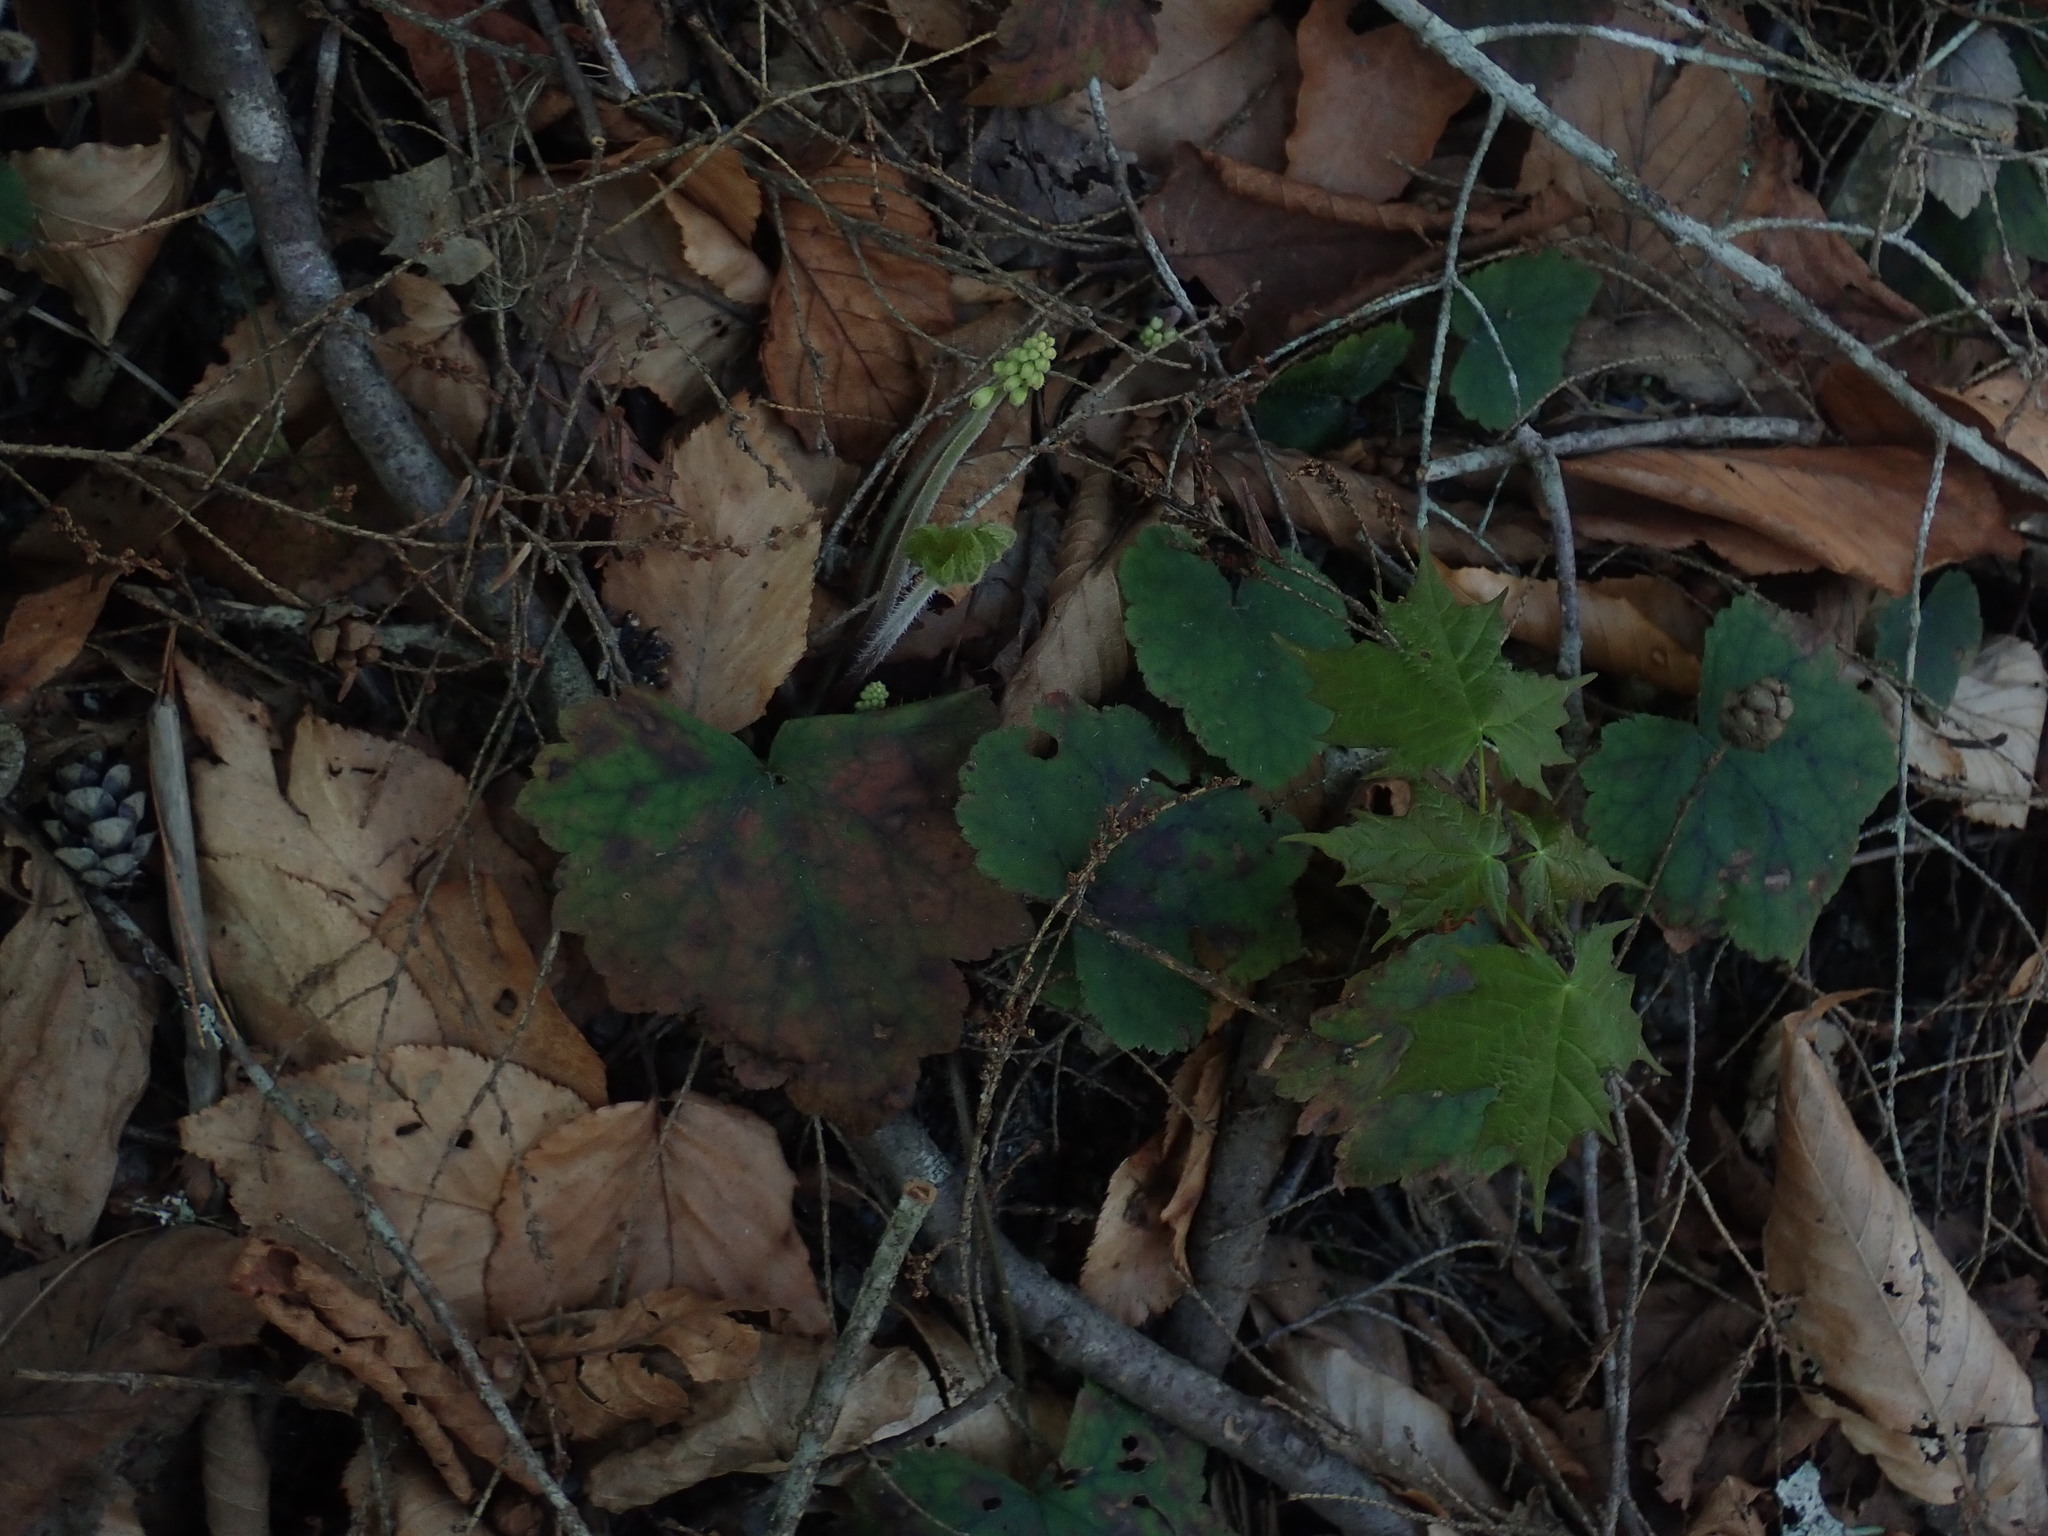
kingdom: Plantae
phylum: Tracheophyta
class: Magnoliopsida
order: Saxifragales
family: Saxifragaceae
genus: Tiarella
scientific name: Tiarella stolonifera
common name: Stoloniferous foamflower
